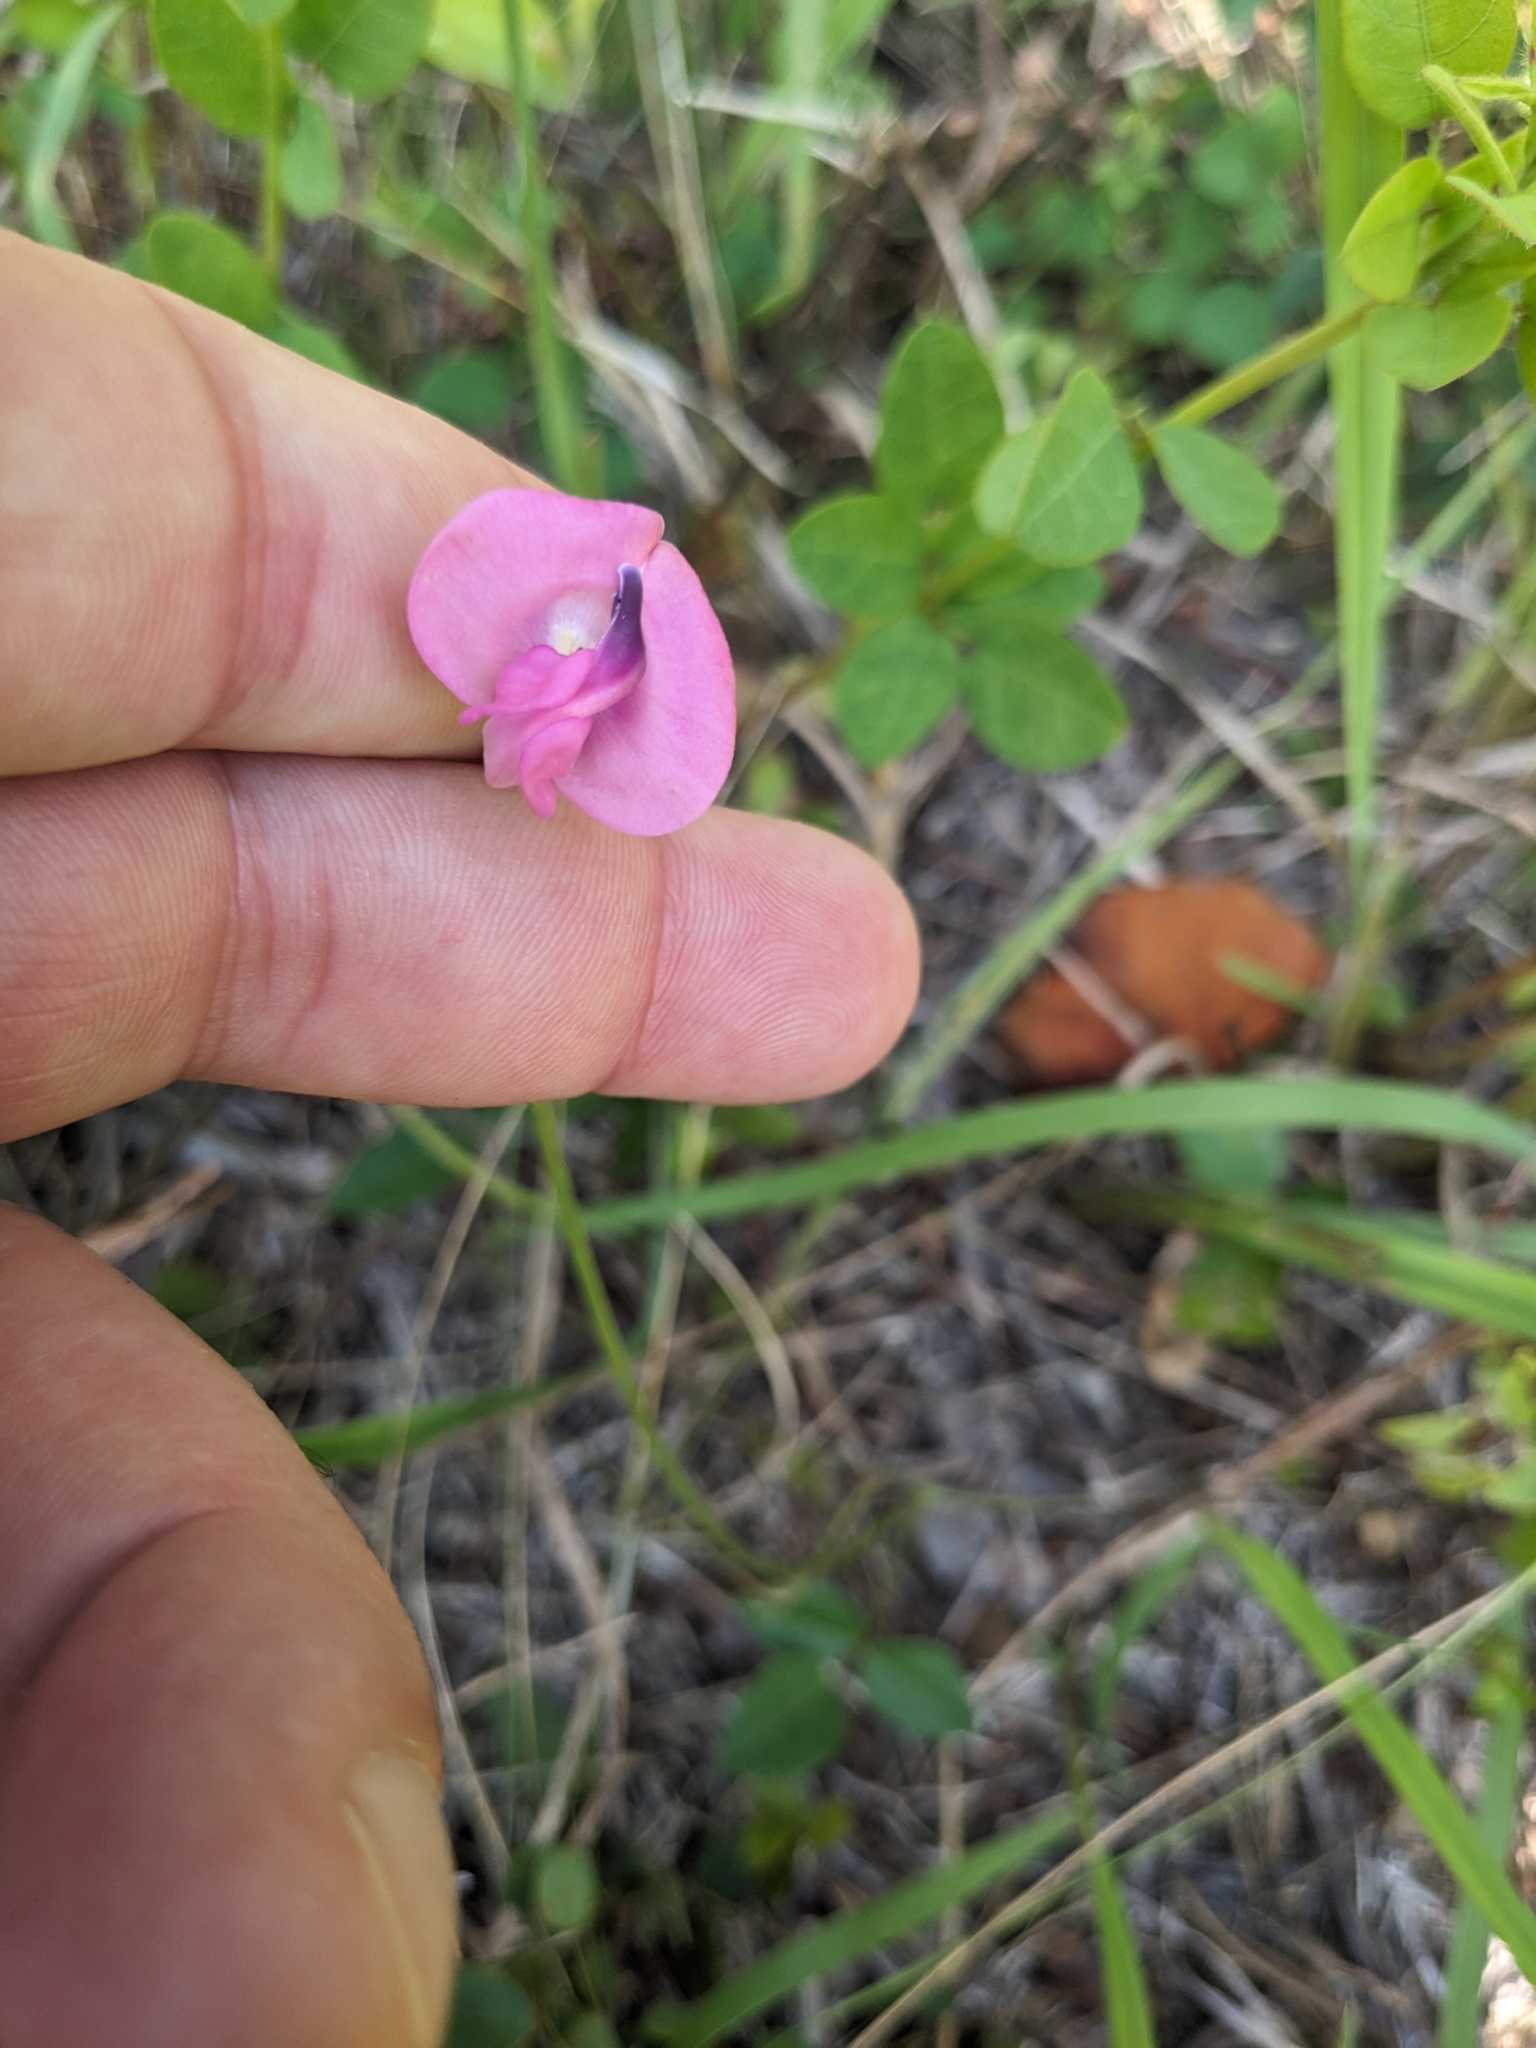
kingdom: Plantae
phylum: Tracheophyta
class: Magnoliopsida
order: Fabales
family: Fabaceae
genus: Strophostyles
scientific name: Strophostyles umbellata
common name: Perennial wild bean
